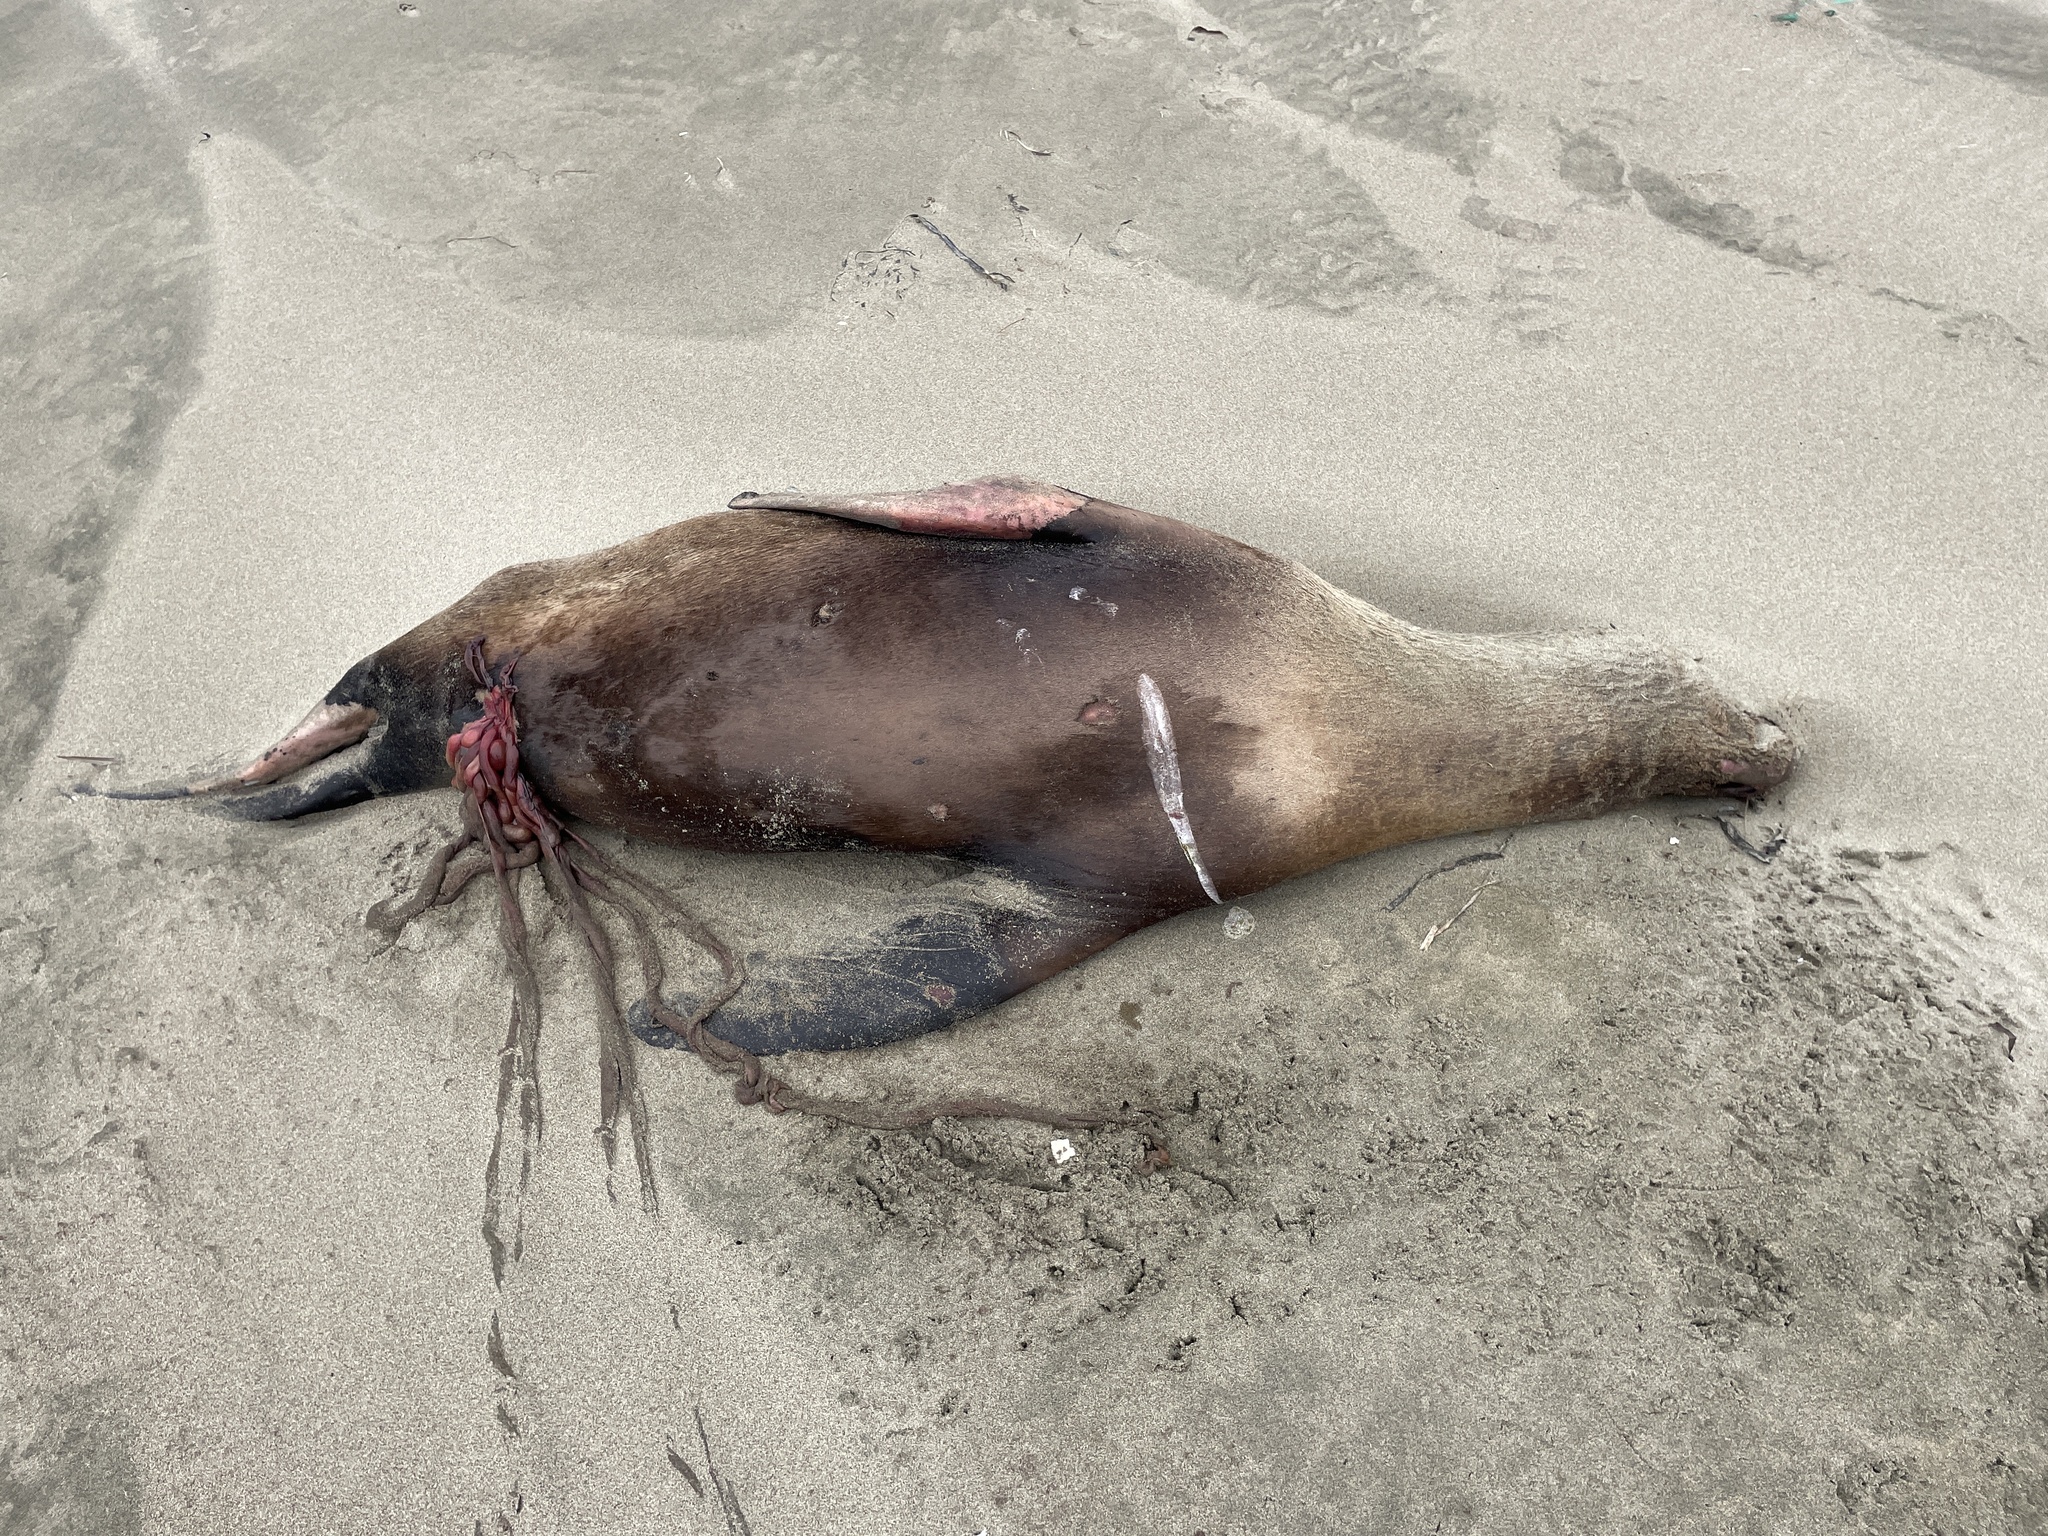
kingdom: Animalia
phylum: Chordata
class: Mammalia
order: Carnivora
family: Otariidae
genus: Zalophus
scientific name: Zalophus californianus
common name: California sea lion
